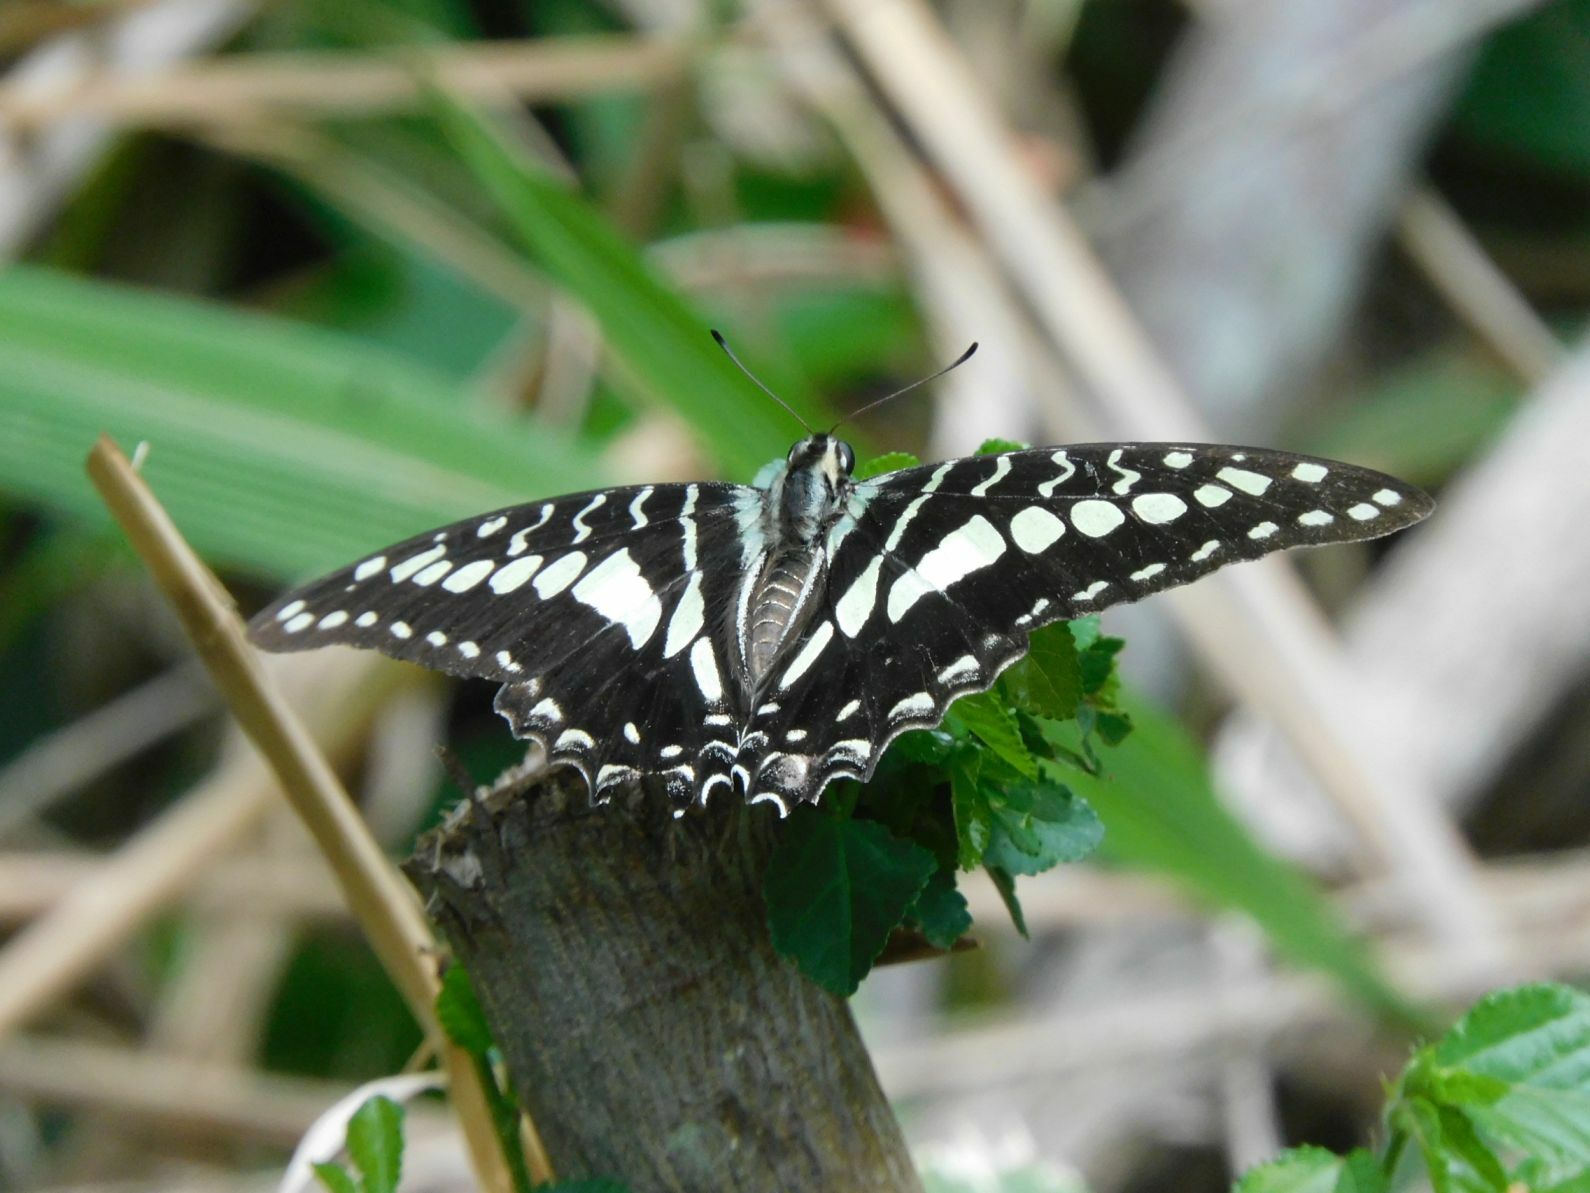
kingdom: Animalia
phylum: Arthropoda
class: Insecta
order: Lepidoptera
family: Papilionidae
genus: Graphium
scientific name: Graphium porthaon
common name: Coastal swordtail
